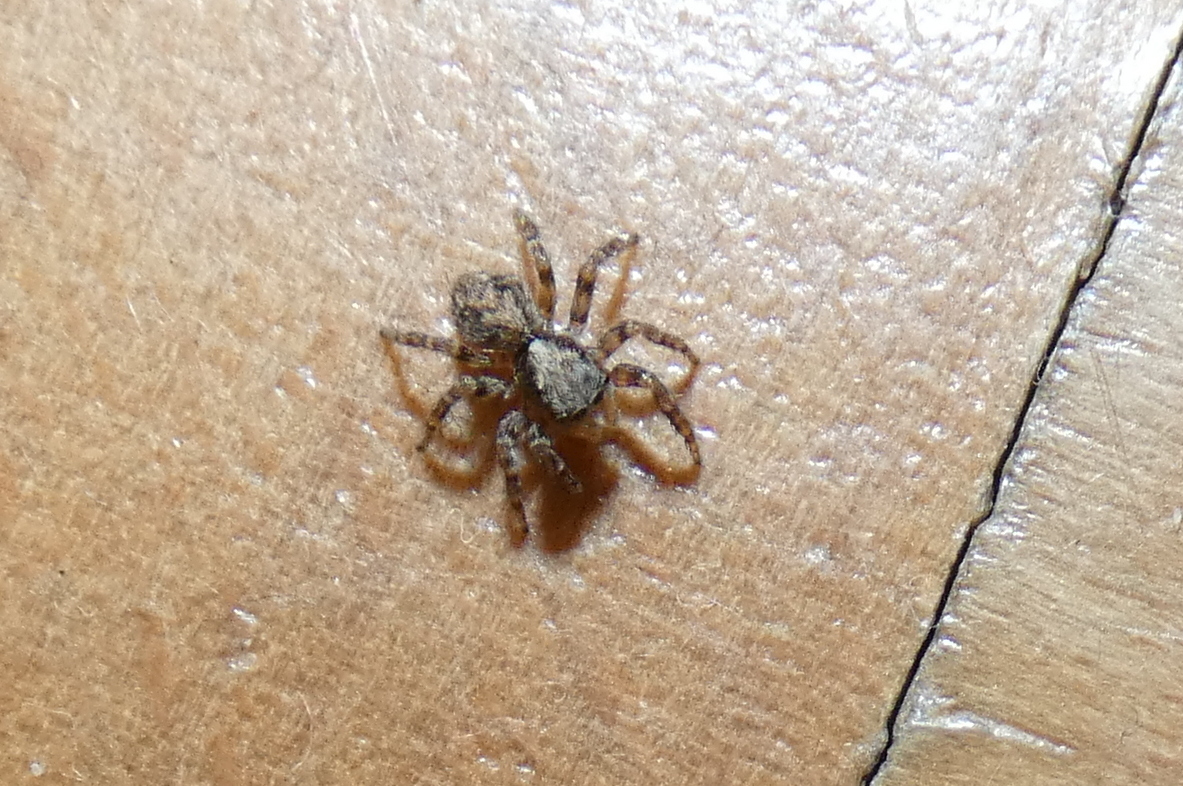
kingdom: Animalia
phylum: Arthropoda
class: Arachnida
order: Araneae
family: Salticidae
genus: Pseudeuophrys
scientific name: Pseudeuophrys lanigera
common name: Jumping spider
